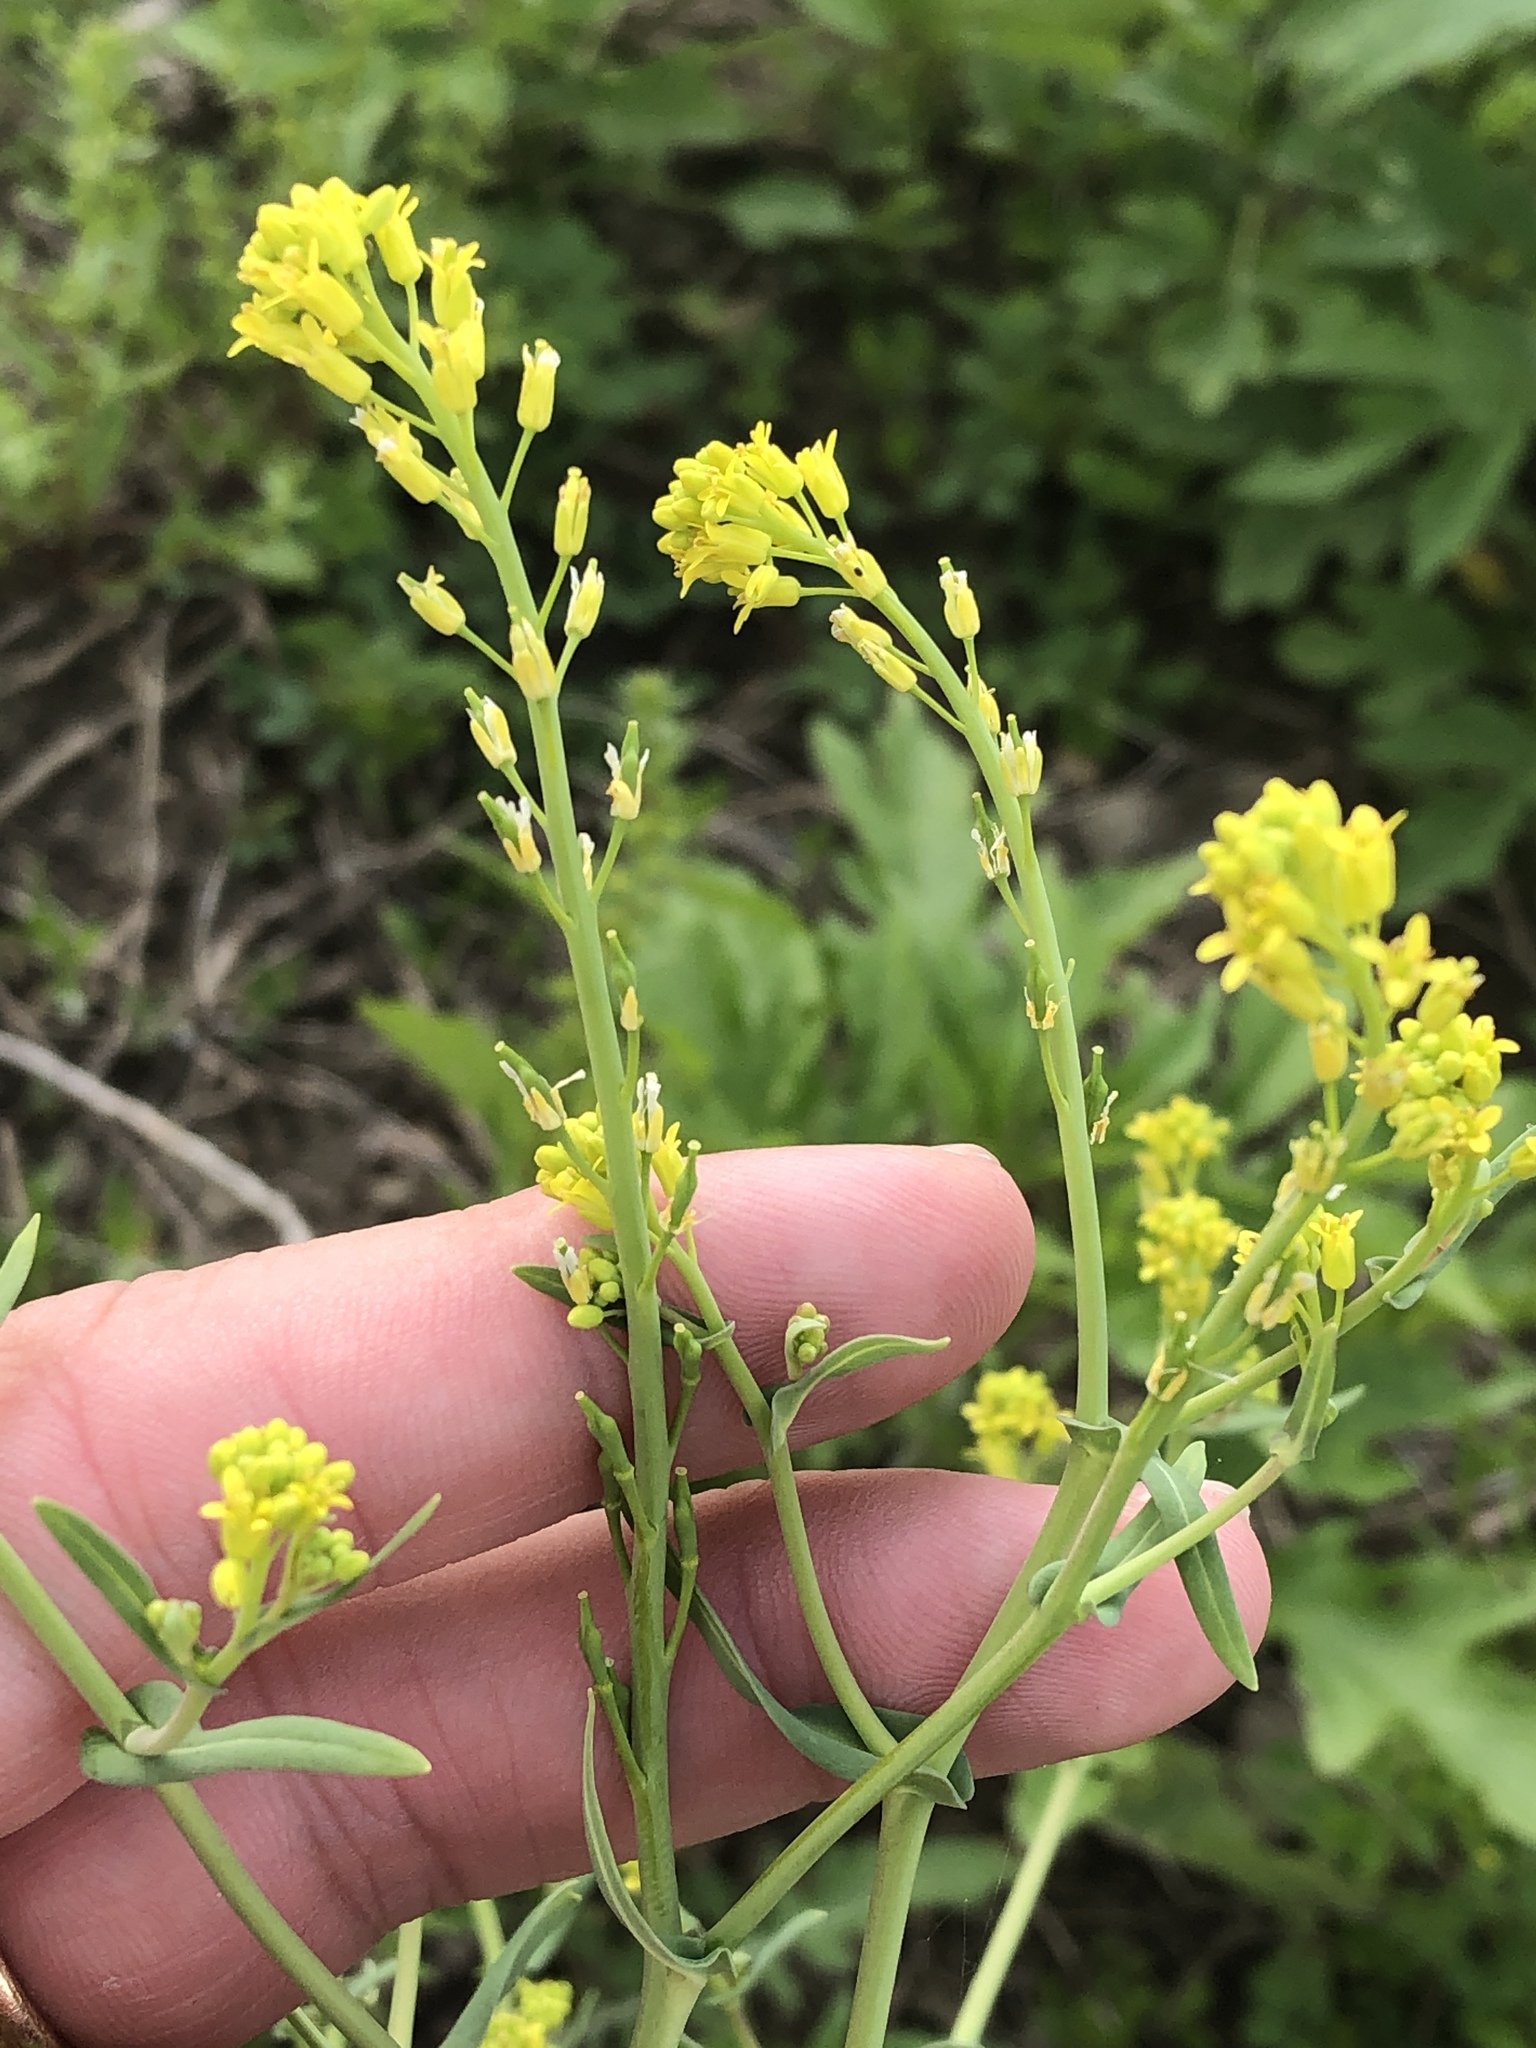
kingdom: Plantae
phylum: Tracheophyta
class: Magnoliopsida
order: Brassicales
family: Brassicaceae
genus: Myagrum
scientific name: Myagrum perfoliatum
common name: Mitre cress
